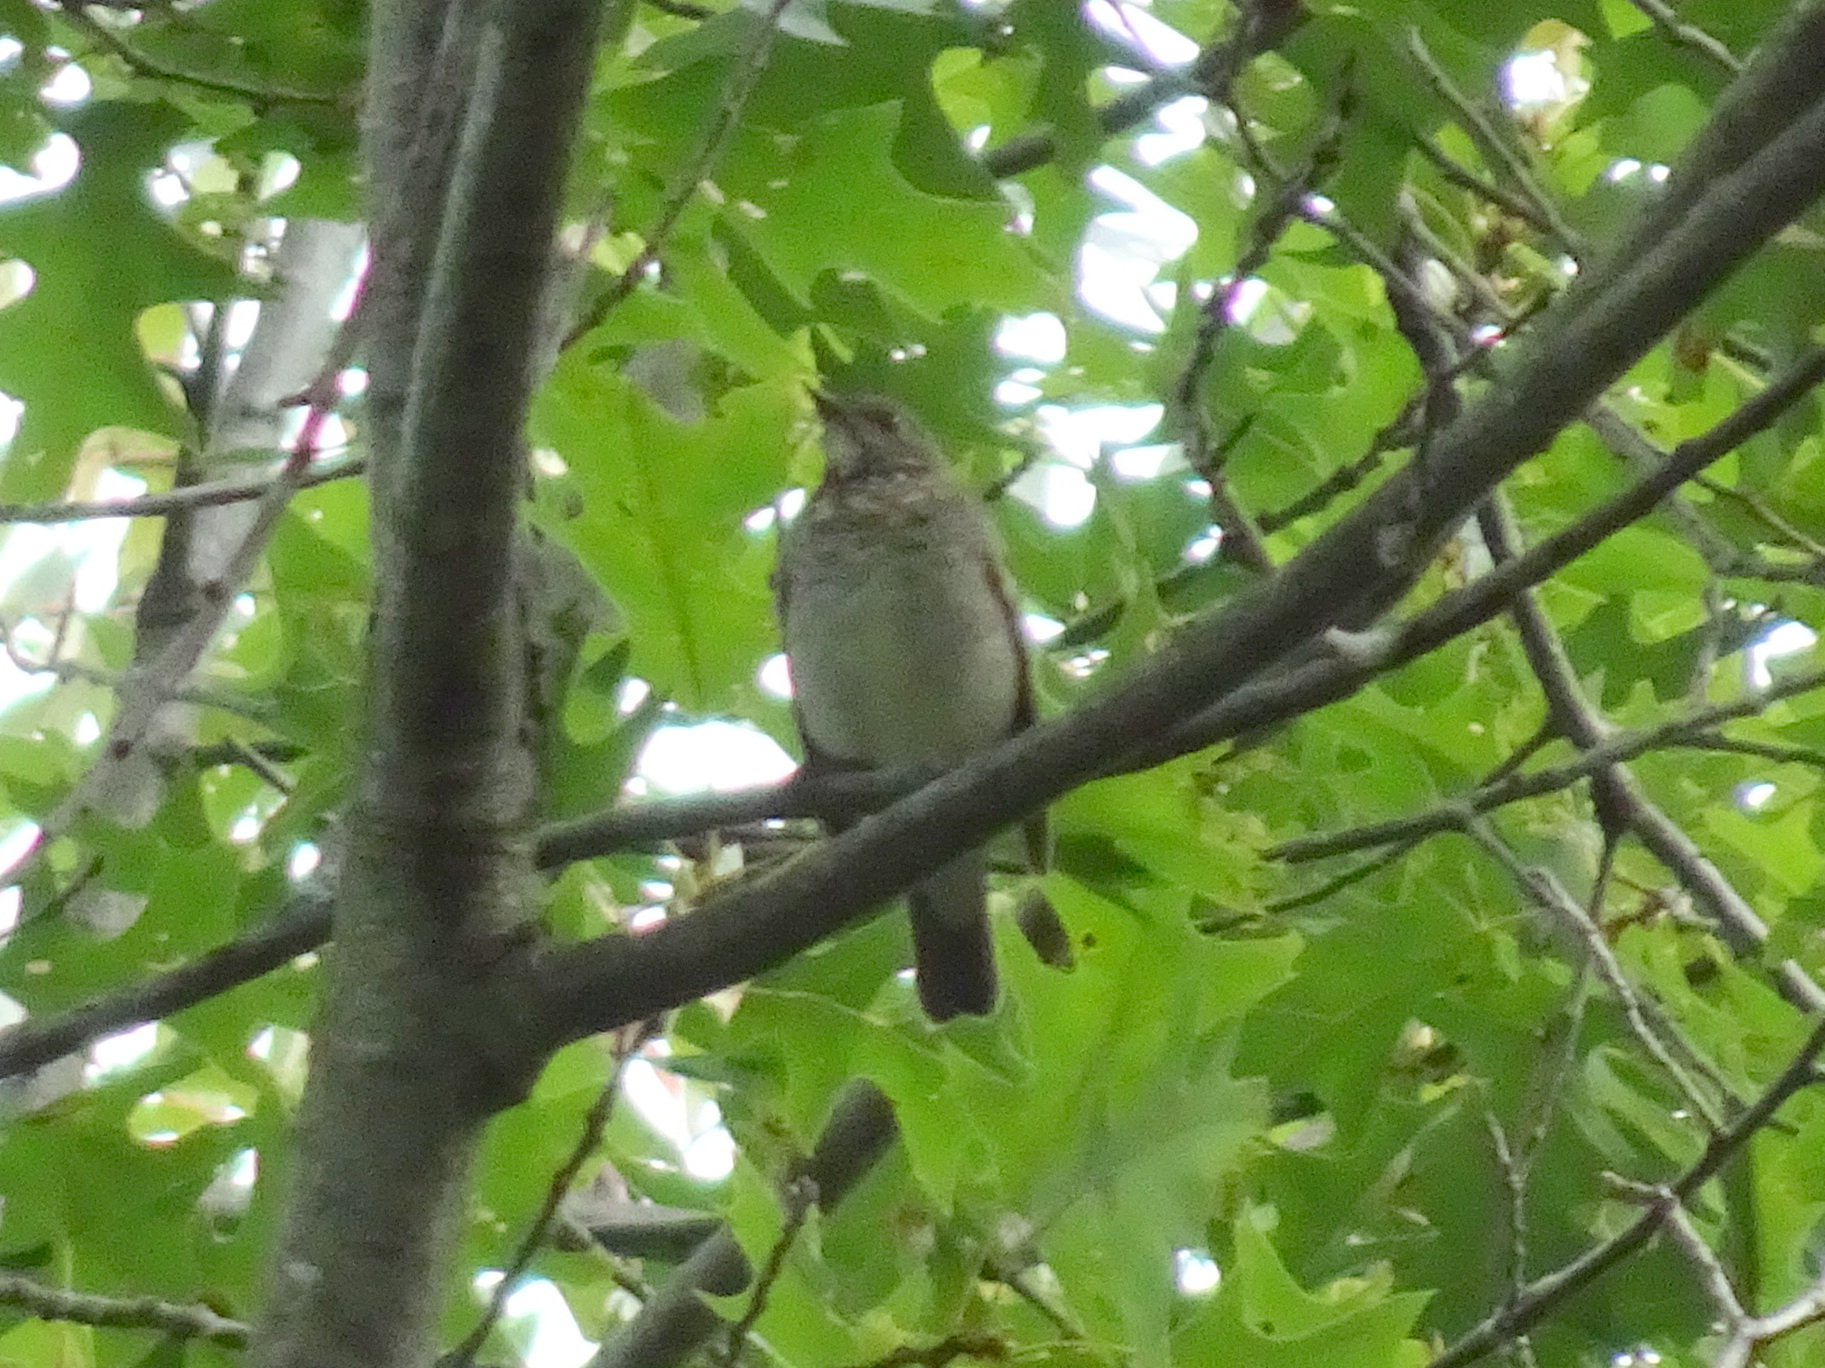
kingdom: Animalia
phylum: Chordata
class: Aves
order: Passeriformes
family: Turdidae
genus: Catharus
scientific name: Catharus minimus
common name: Grey-cheeked thrush
